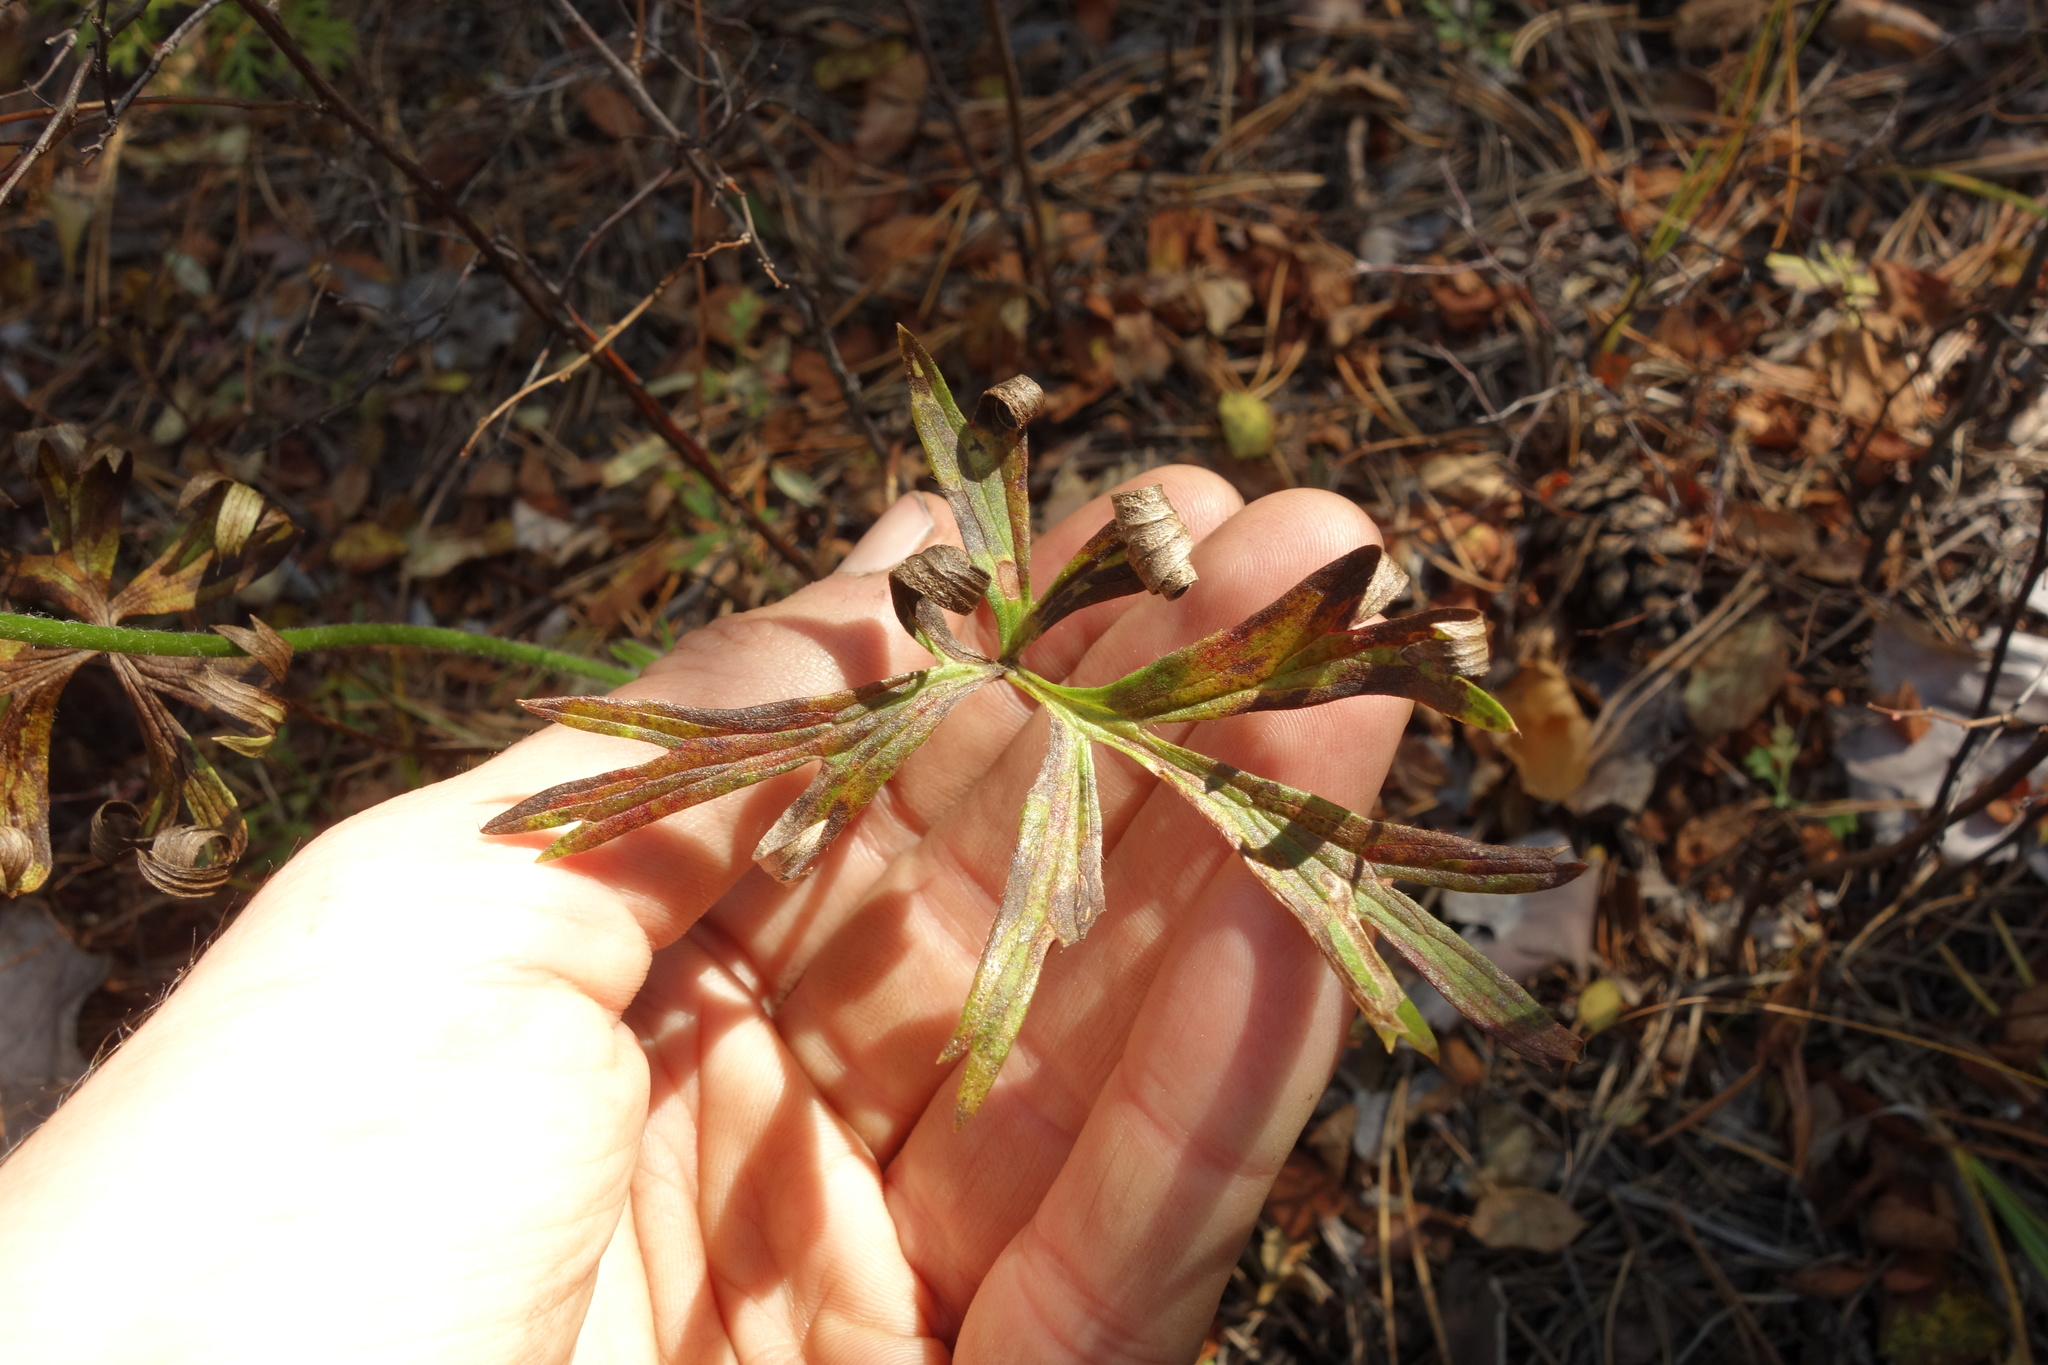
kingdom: Plantae
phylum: Tracheophyta
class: Magnoliopsida
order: Ranunculales
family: Ranunculaceae
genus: Pulsatilla
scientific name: Pulsatilla patens
